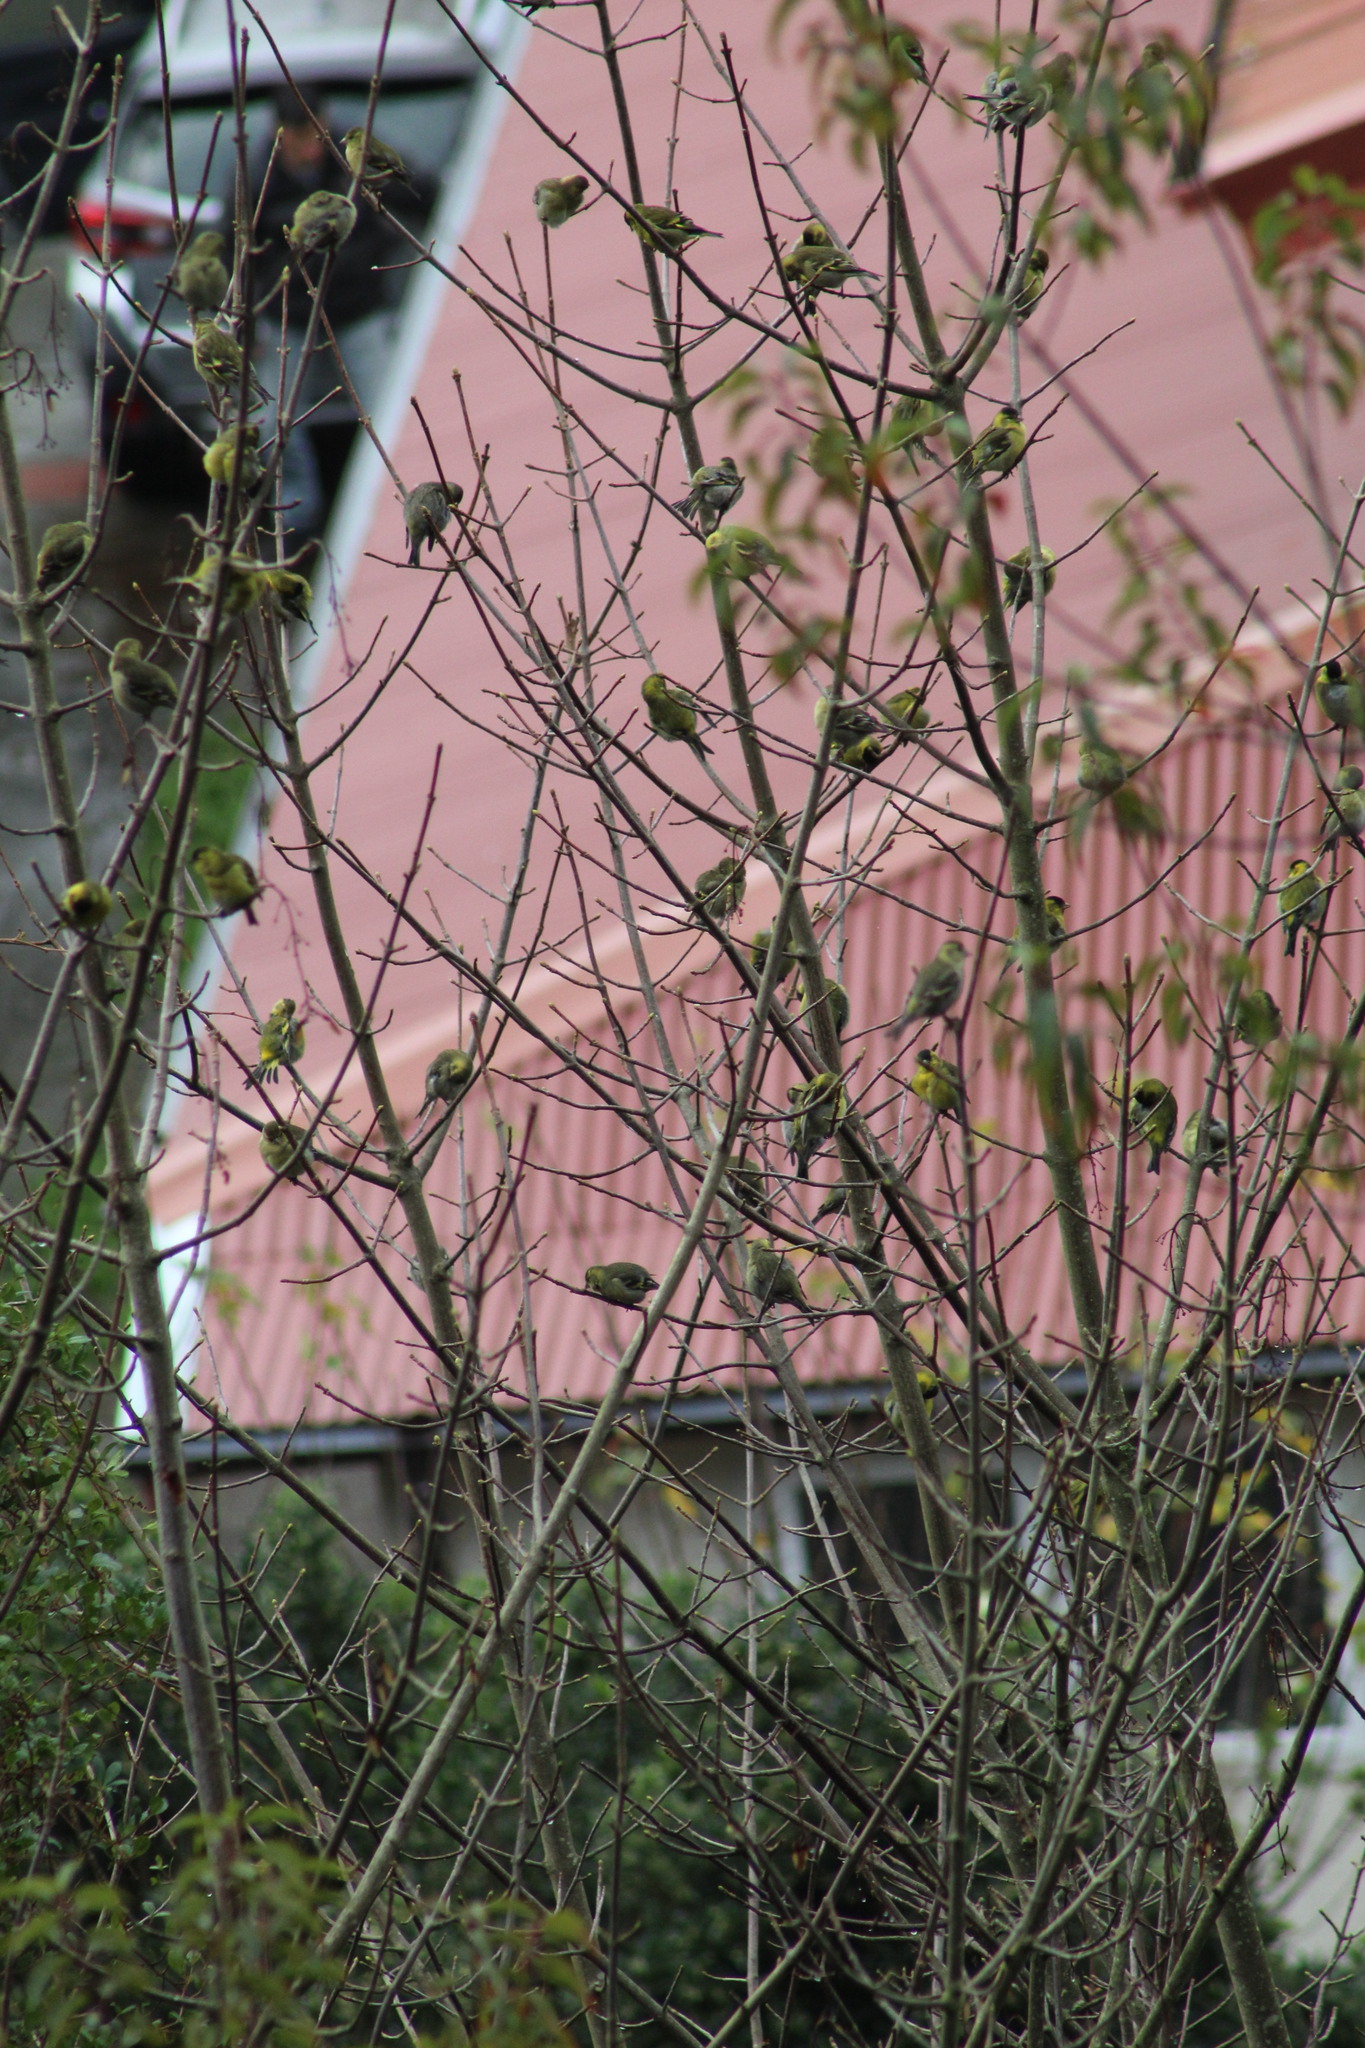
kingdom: Animalia
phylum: Chordata
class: Aves
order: Passeriformes
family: Fringillidae
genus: Spinus
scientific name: Spinus barbatus
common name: Black-chinned siskin
